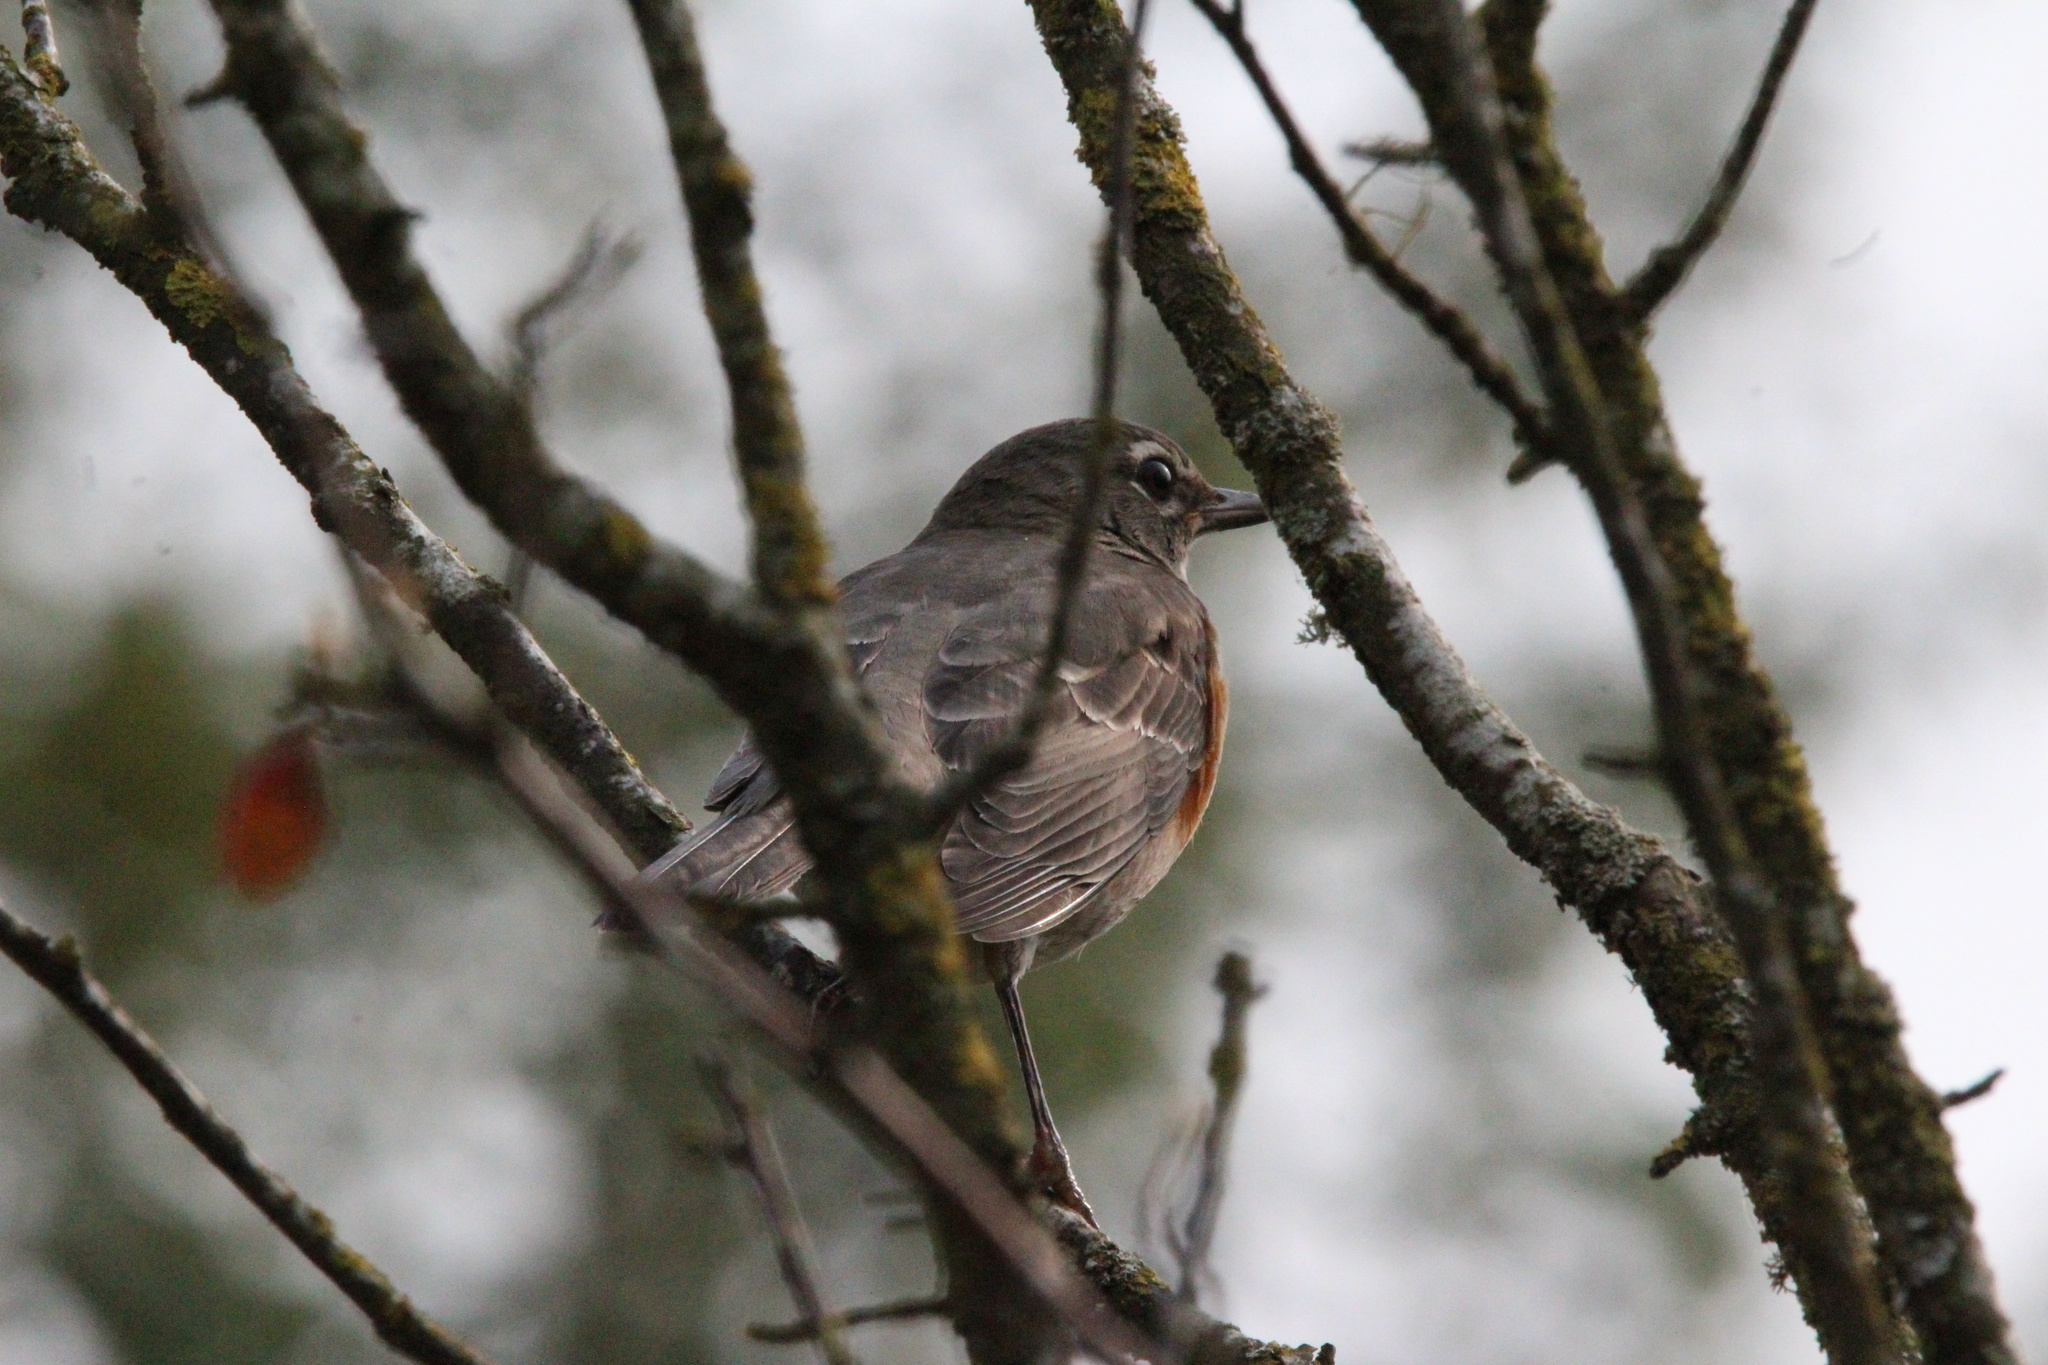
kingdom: Animalia
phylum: Chordata
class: Aves
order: Passeriformes
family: Turdidae
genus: Turdus
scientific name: Turdus migratorius
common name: American robin
